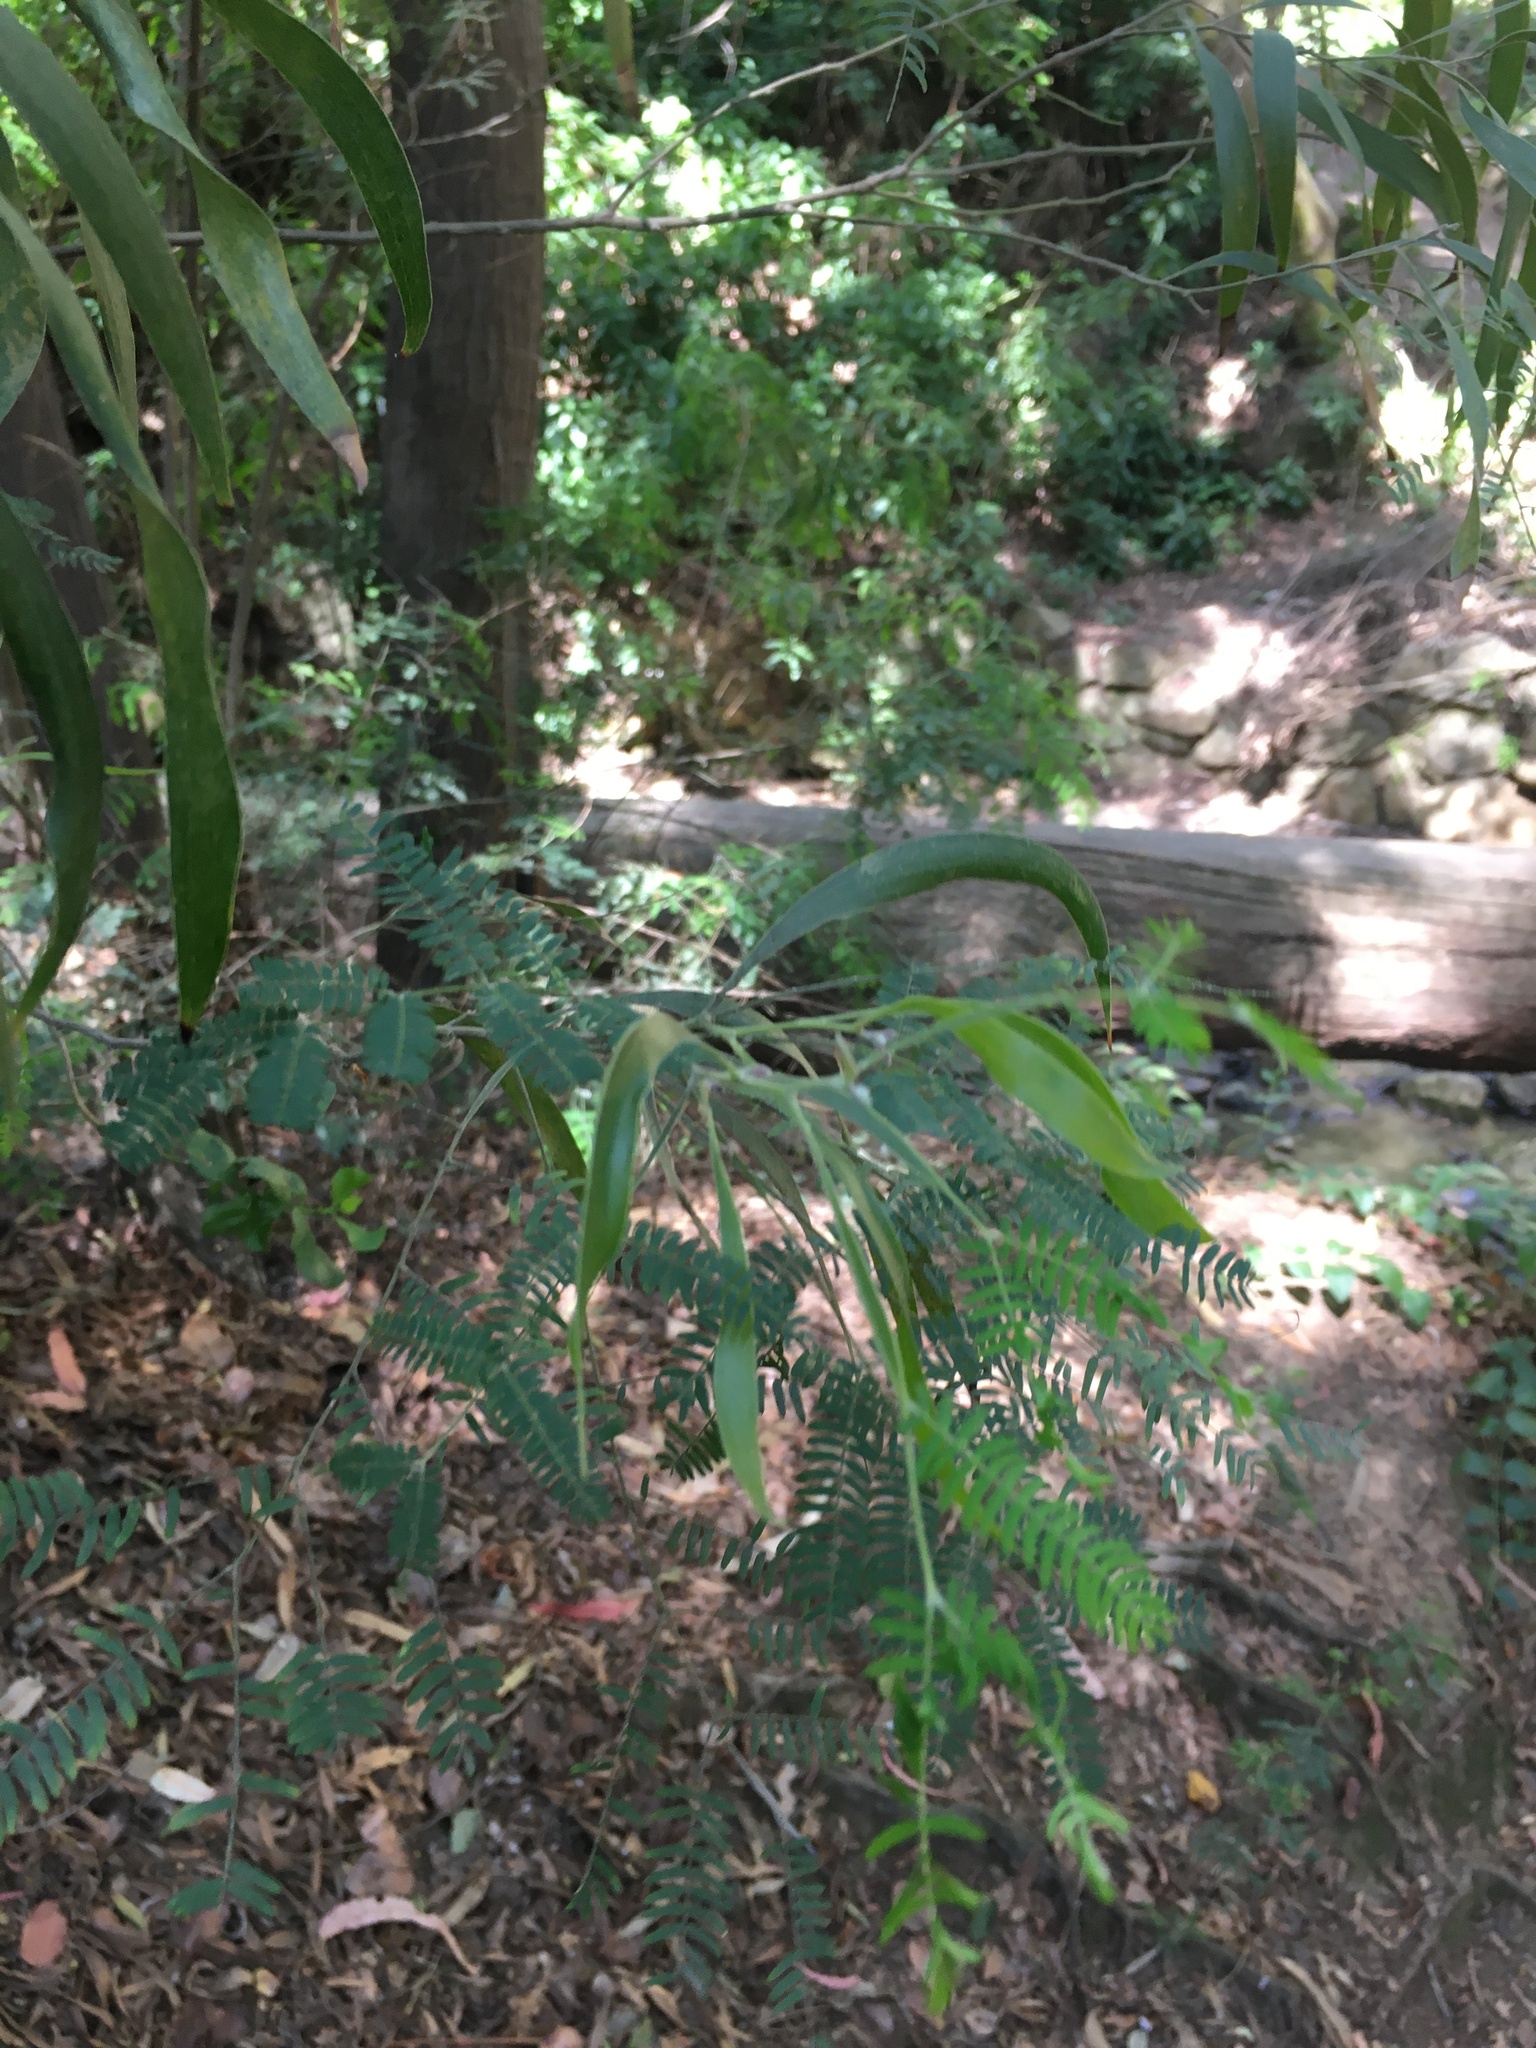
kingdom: Plantae
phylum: Tracheophyta
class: Magnoliopsida
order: Fabales
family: Fabaceae
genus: Acacia
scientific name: Acacia melanoxylon
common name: Blackwood
